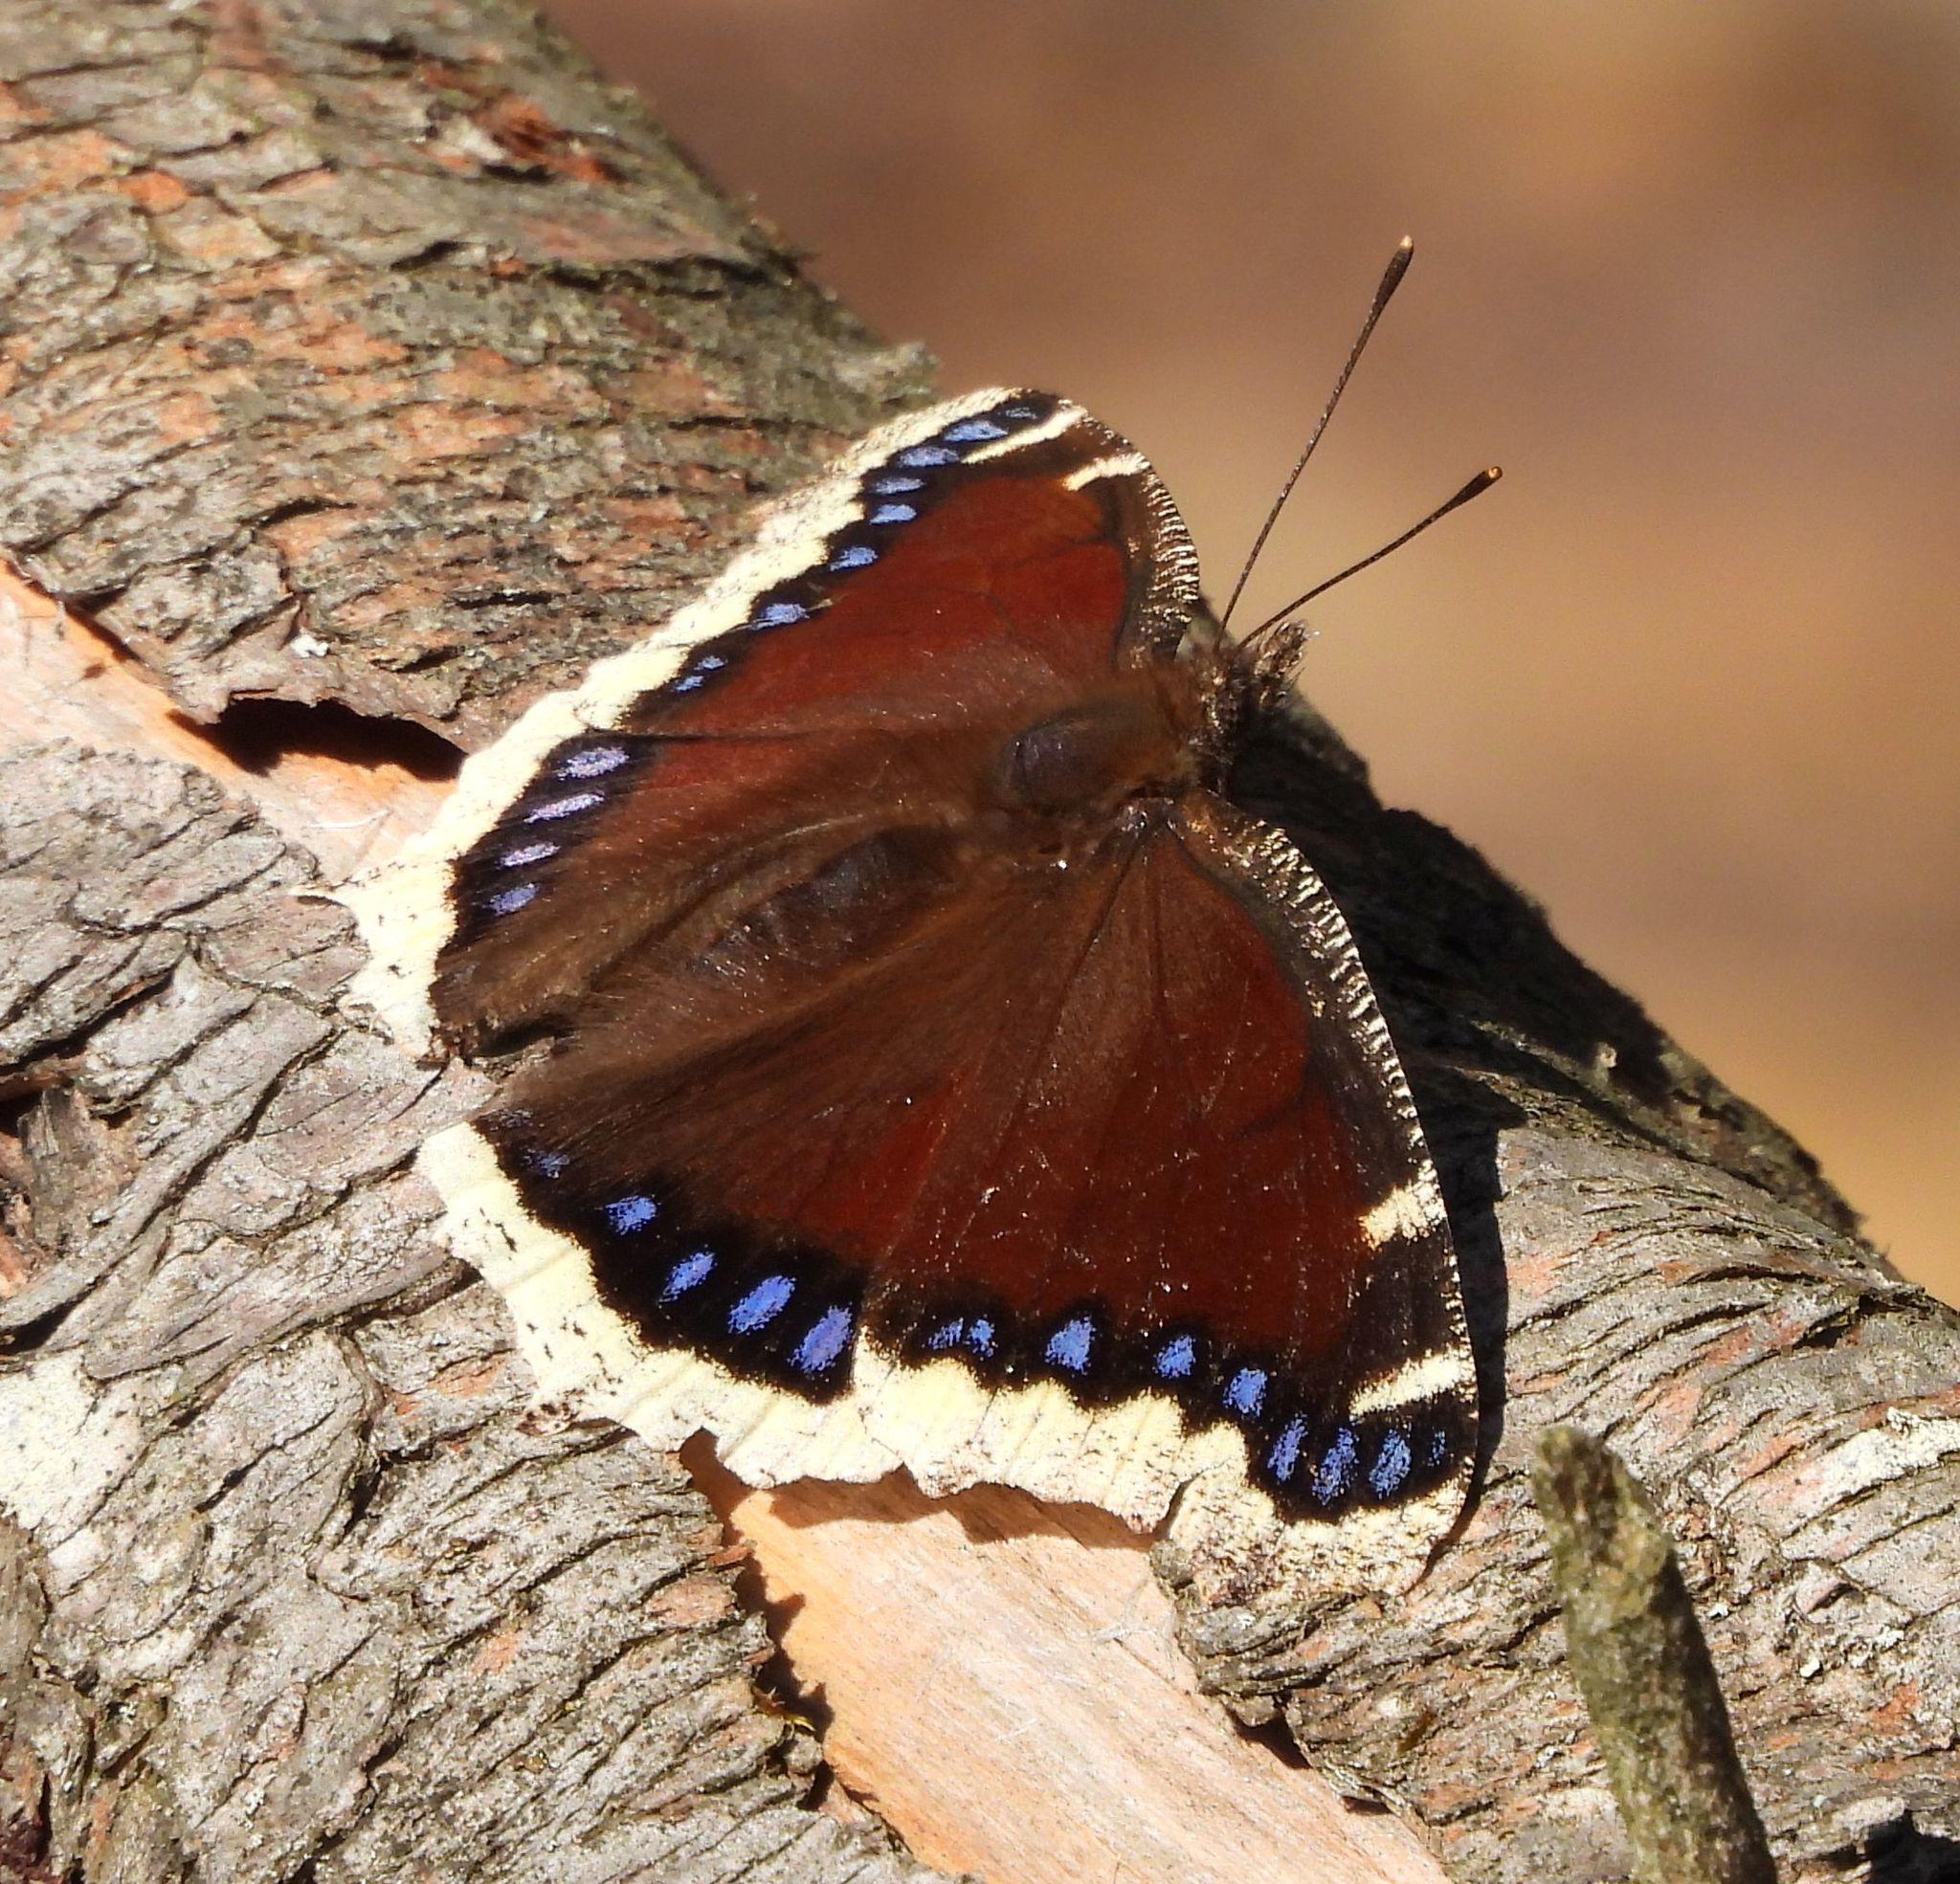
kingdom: Animalia
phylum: Arthropoda
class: Insecta
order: Lepidoptera
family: Nymphalidae
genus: Nymphalis
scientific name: Nymphalis antiopa
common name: Camberwell beauty
